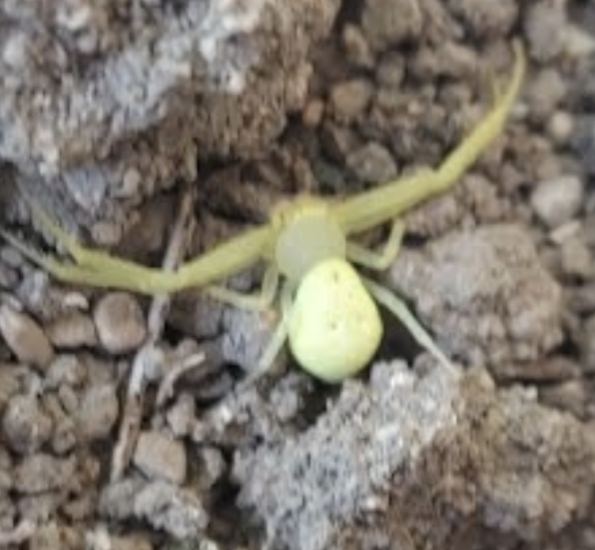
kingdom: Animalia
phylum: Arthropoda
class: Arachnida
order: Araneae
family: Thomisidae
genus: Misumessus
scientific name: Misumessus oblongus
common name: American green crab spider
